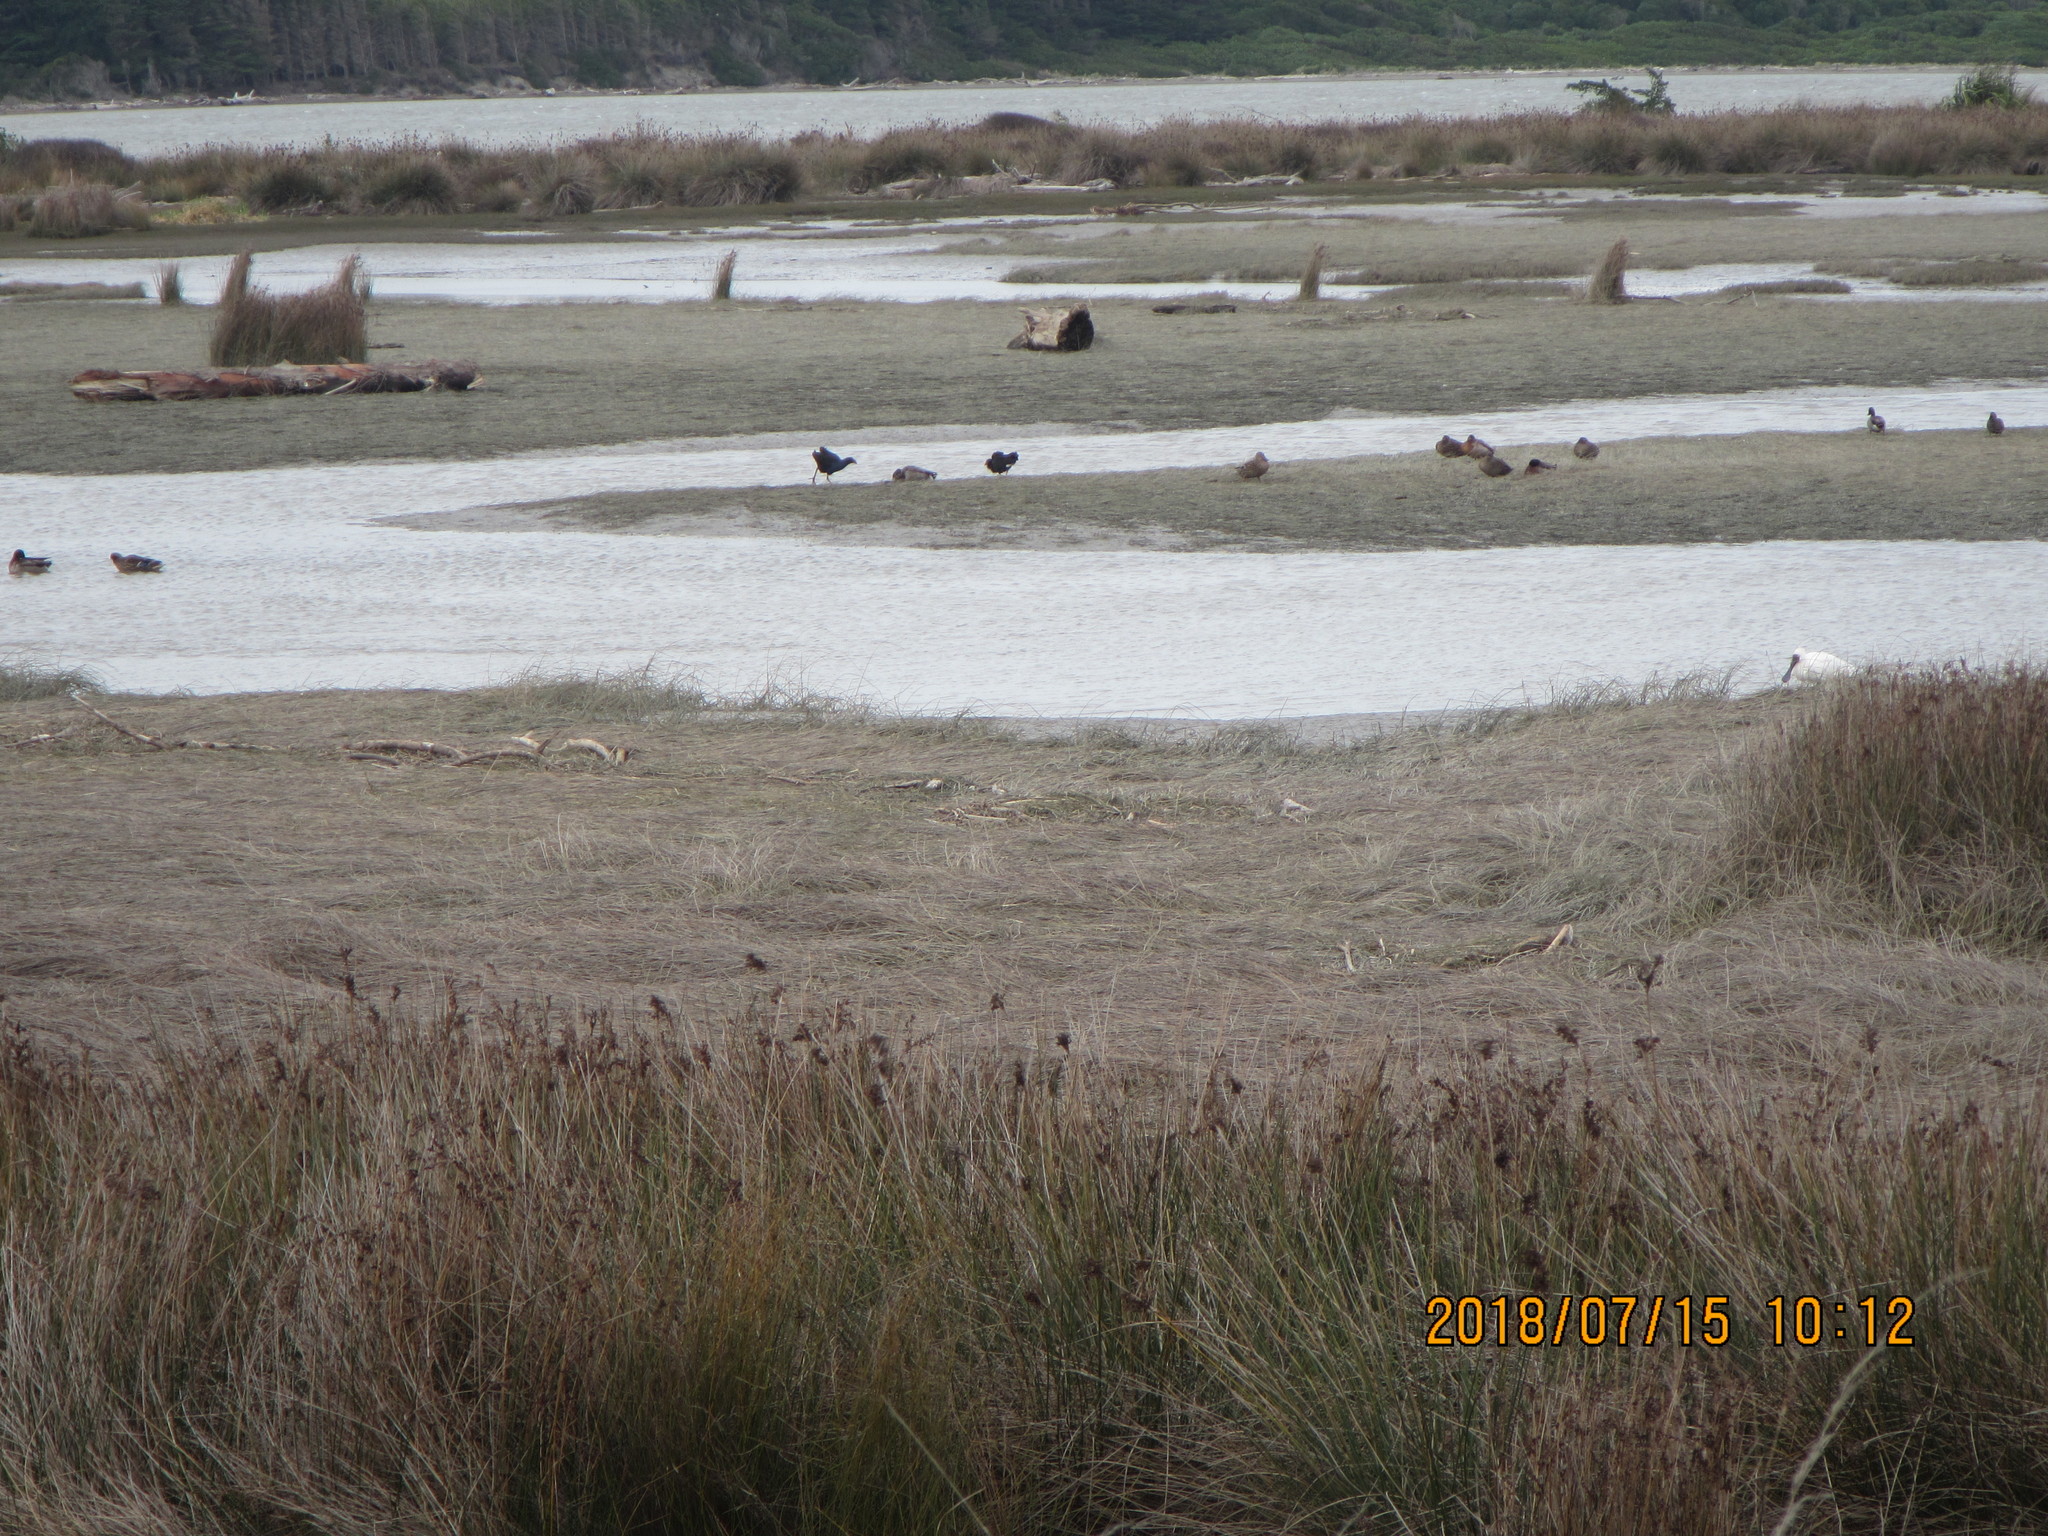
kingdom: Animalia
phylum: Chordata
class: Aves
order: Pelecaniformes
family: Threskiornithidae
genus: Platalea
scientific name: Platalea regia
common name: Royal spoonbill
